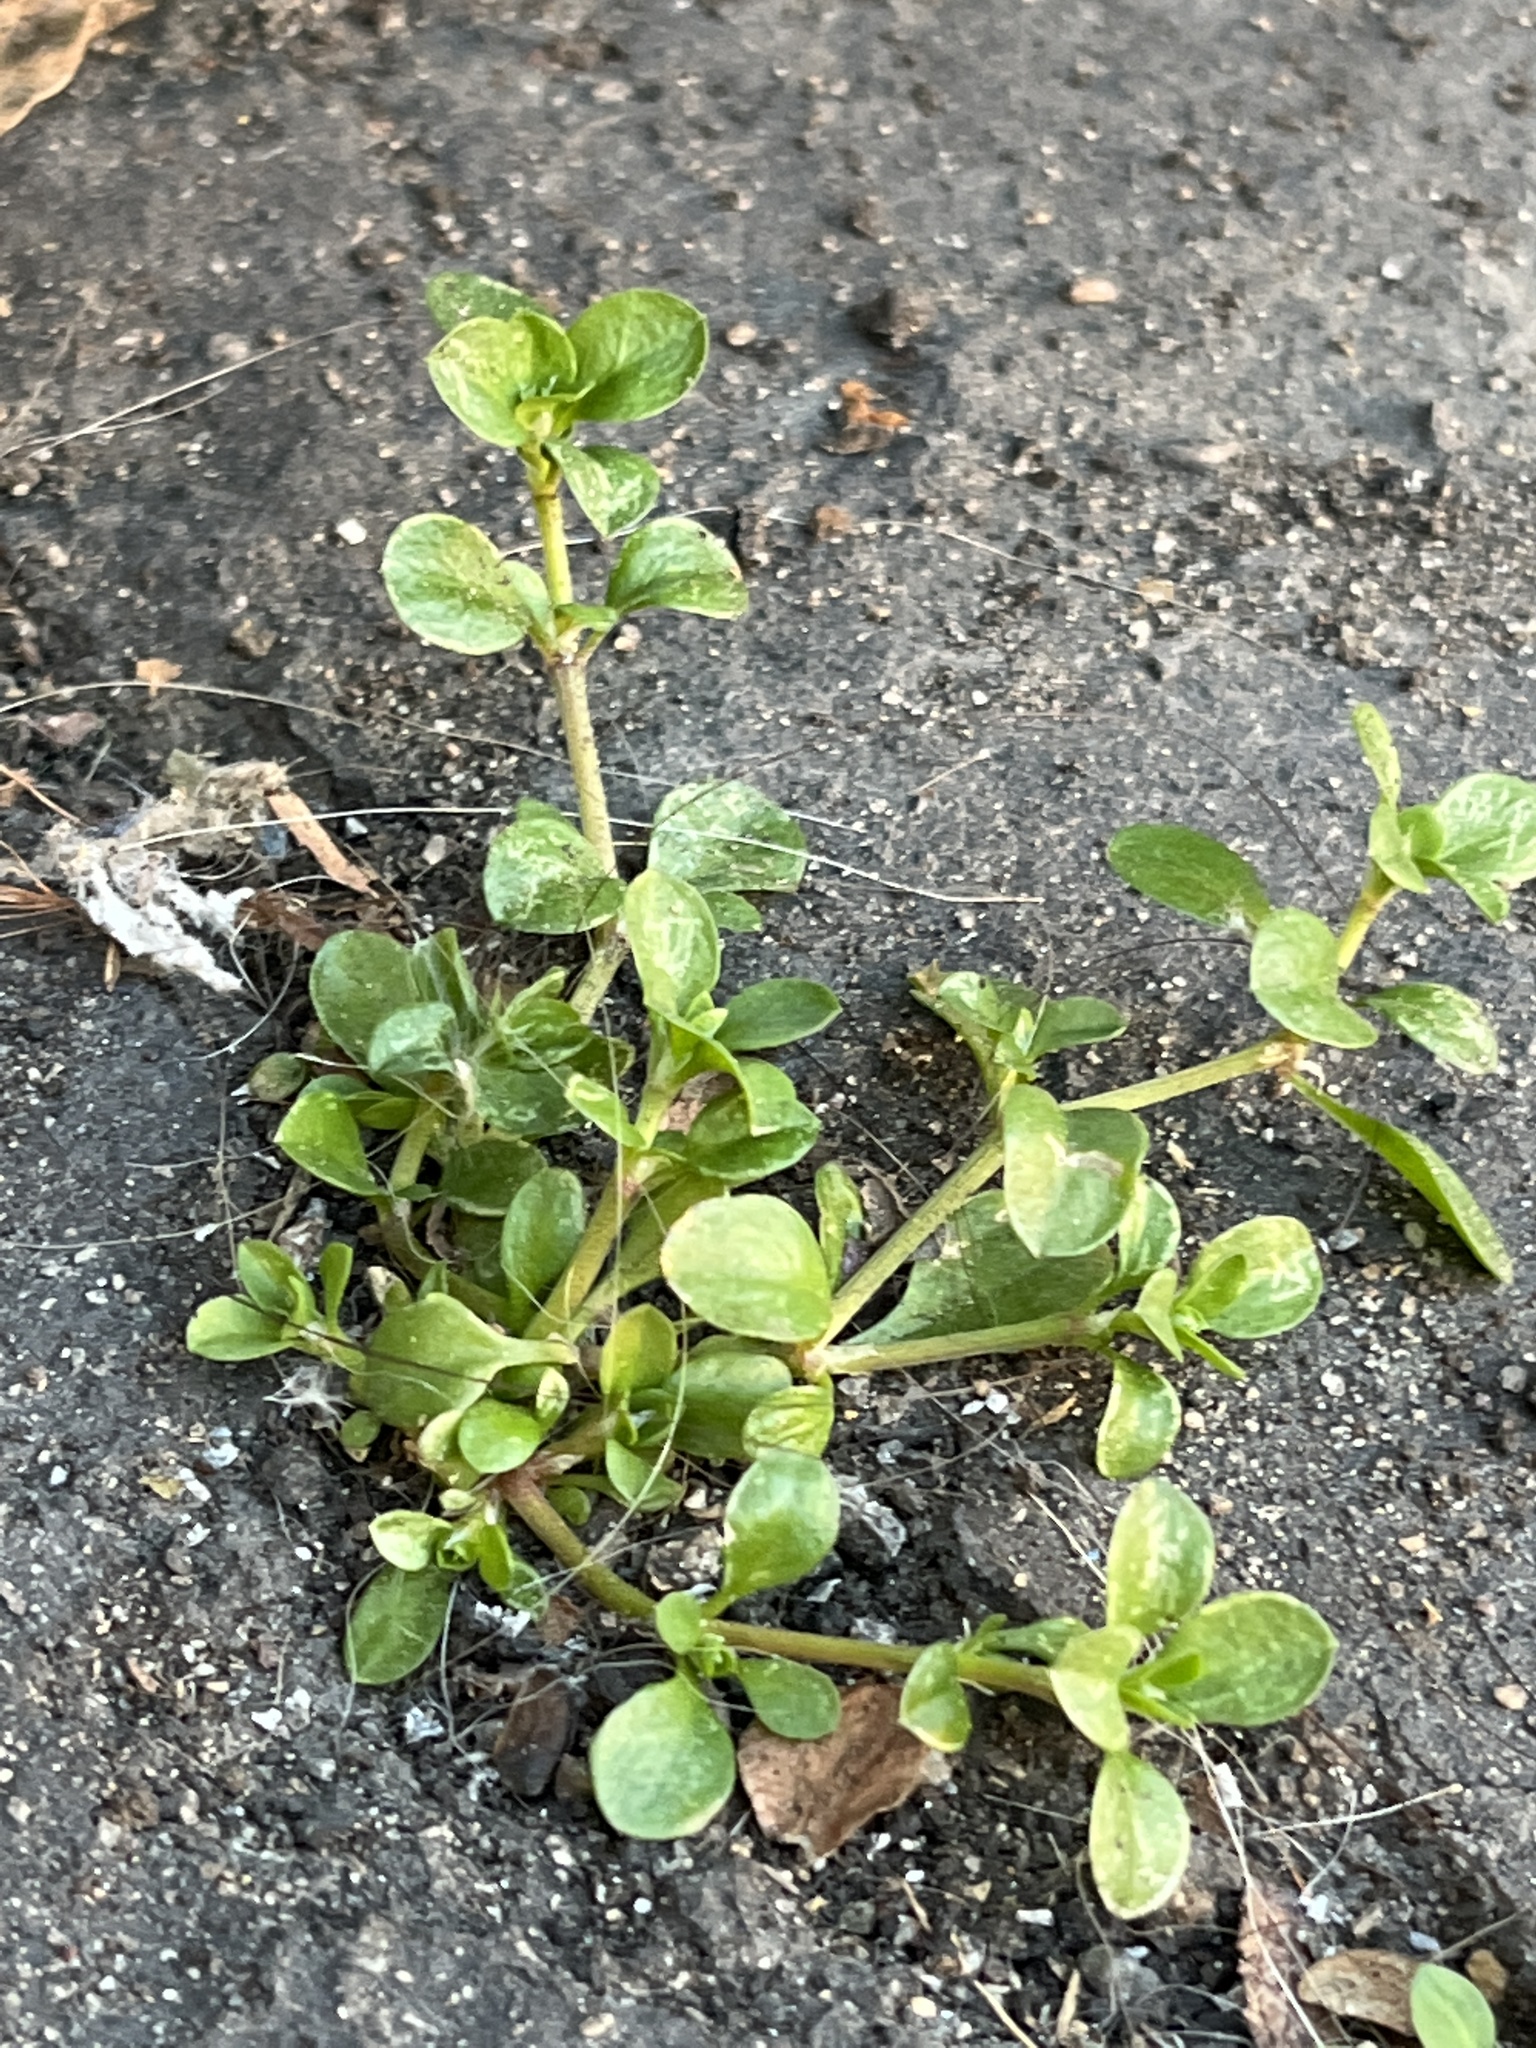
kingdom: Plantae
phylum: Tracheophyta
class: Magnoliopsida
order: Caryophyllales
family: Caryophyllaceae
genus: Polycarpon
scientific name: Polycarpon tetraphyllum
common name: Four-leaved all-seed
